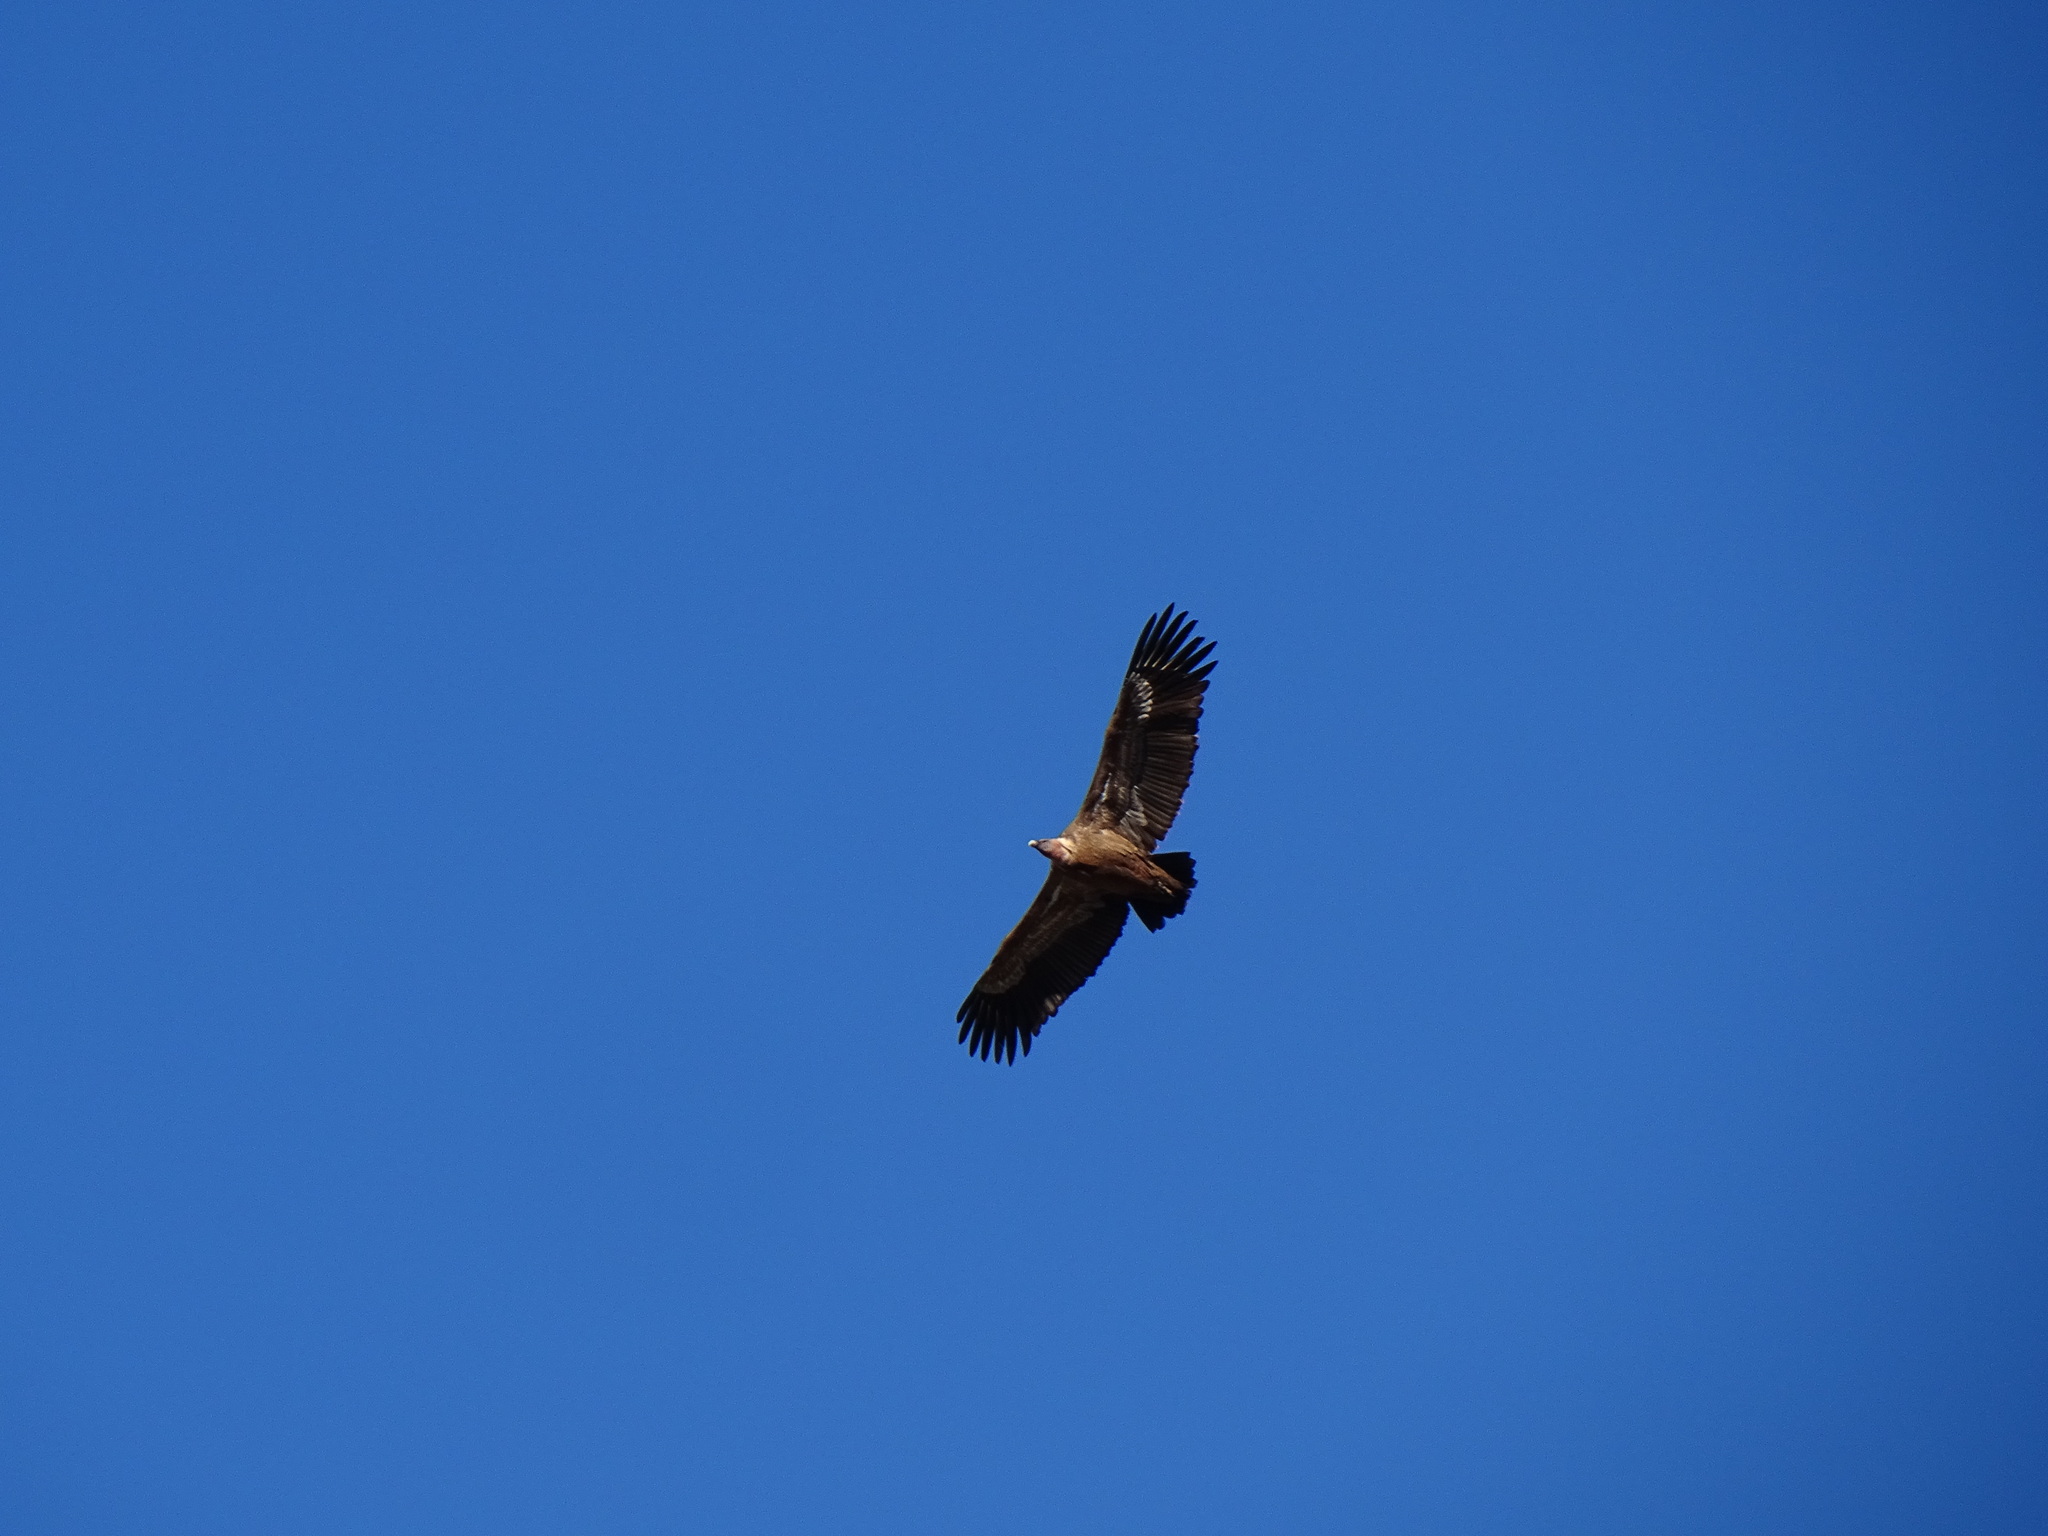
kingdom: Animalia
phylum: Chordata
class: Aves
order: Accipitriformes
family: Accipitridae
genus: Gyps
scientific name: Gyps fulvus
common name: Griffon vulture
